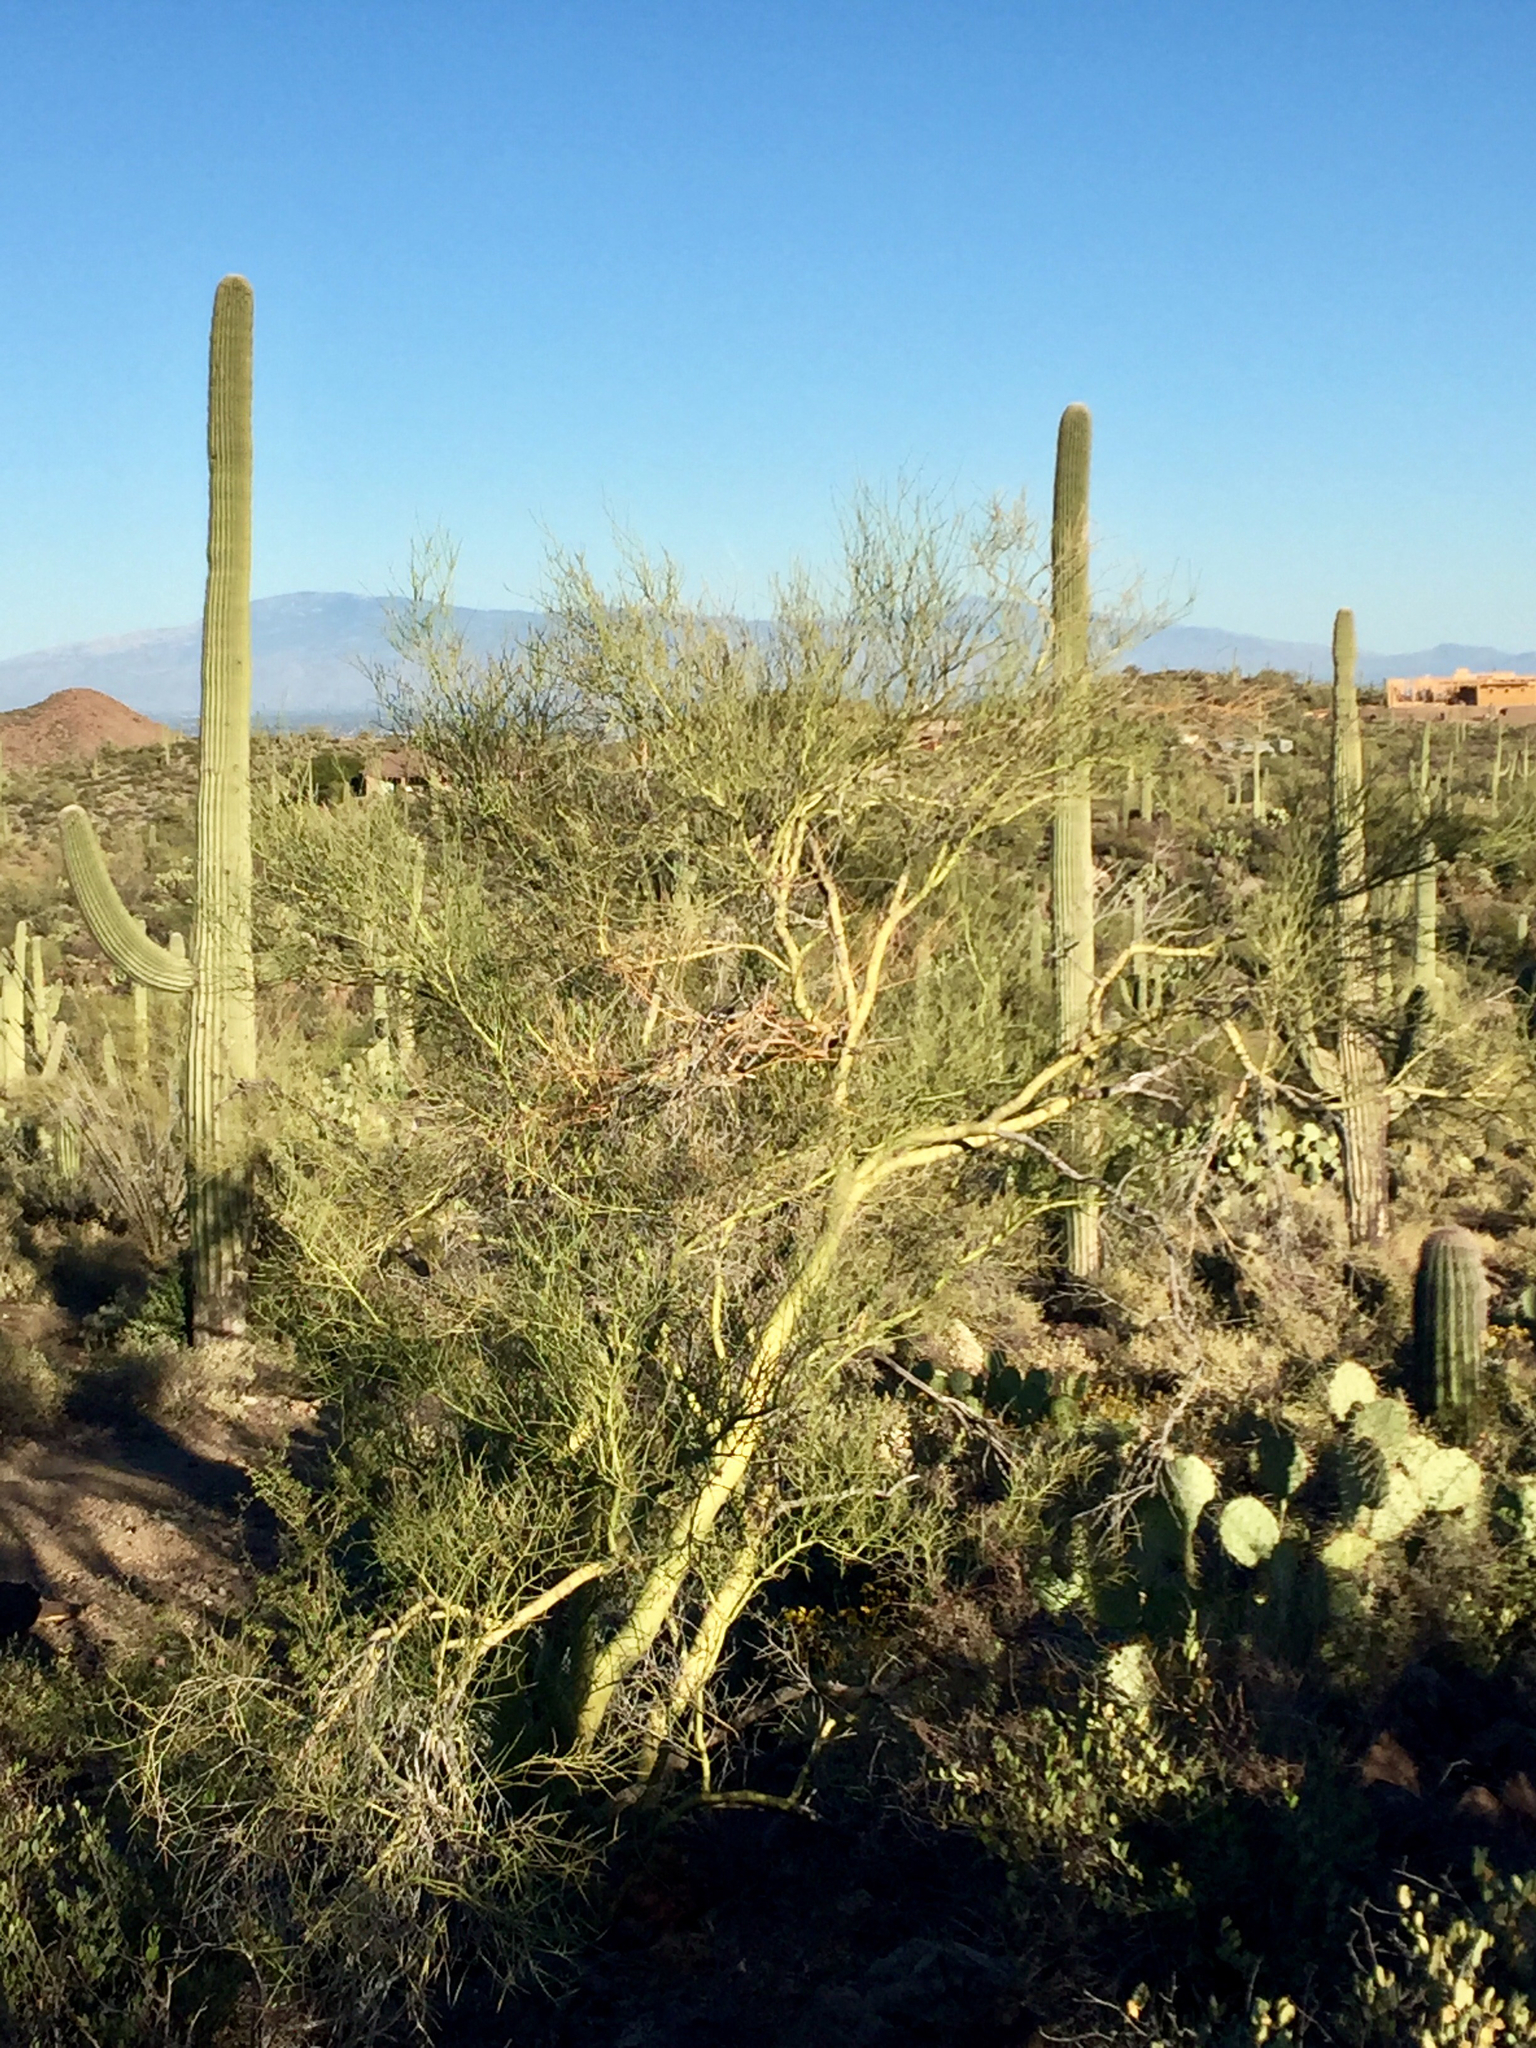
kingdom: Plantae
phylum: Tracheophyta
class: Magnoliopsida
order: Fabales
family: Fabaceae
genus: Parkinsonia
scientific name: Parkinsonia microphylla
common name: Yellow paloverde
